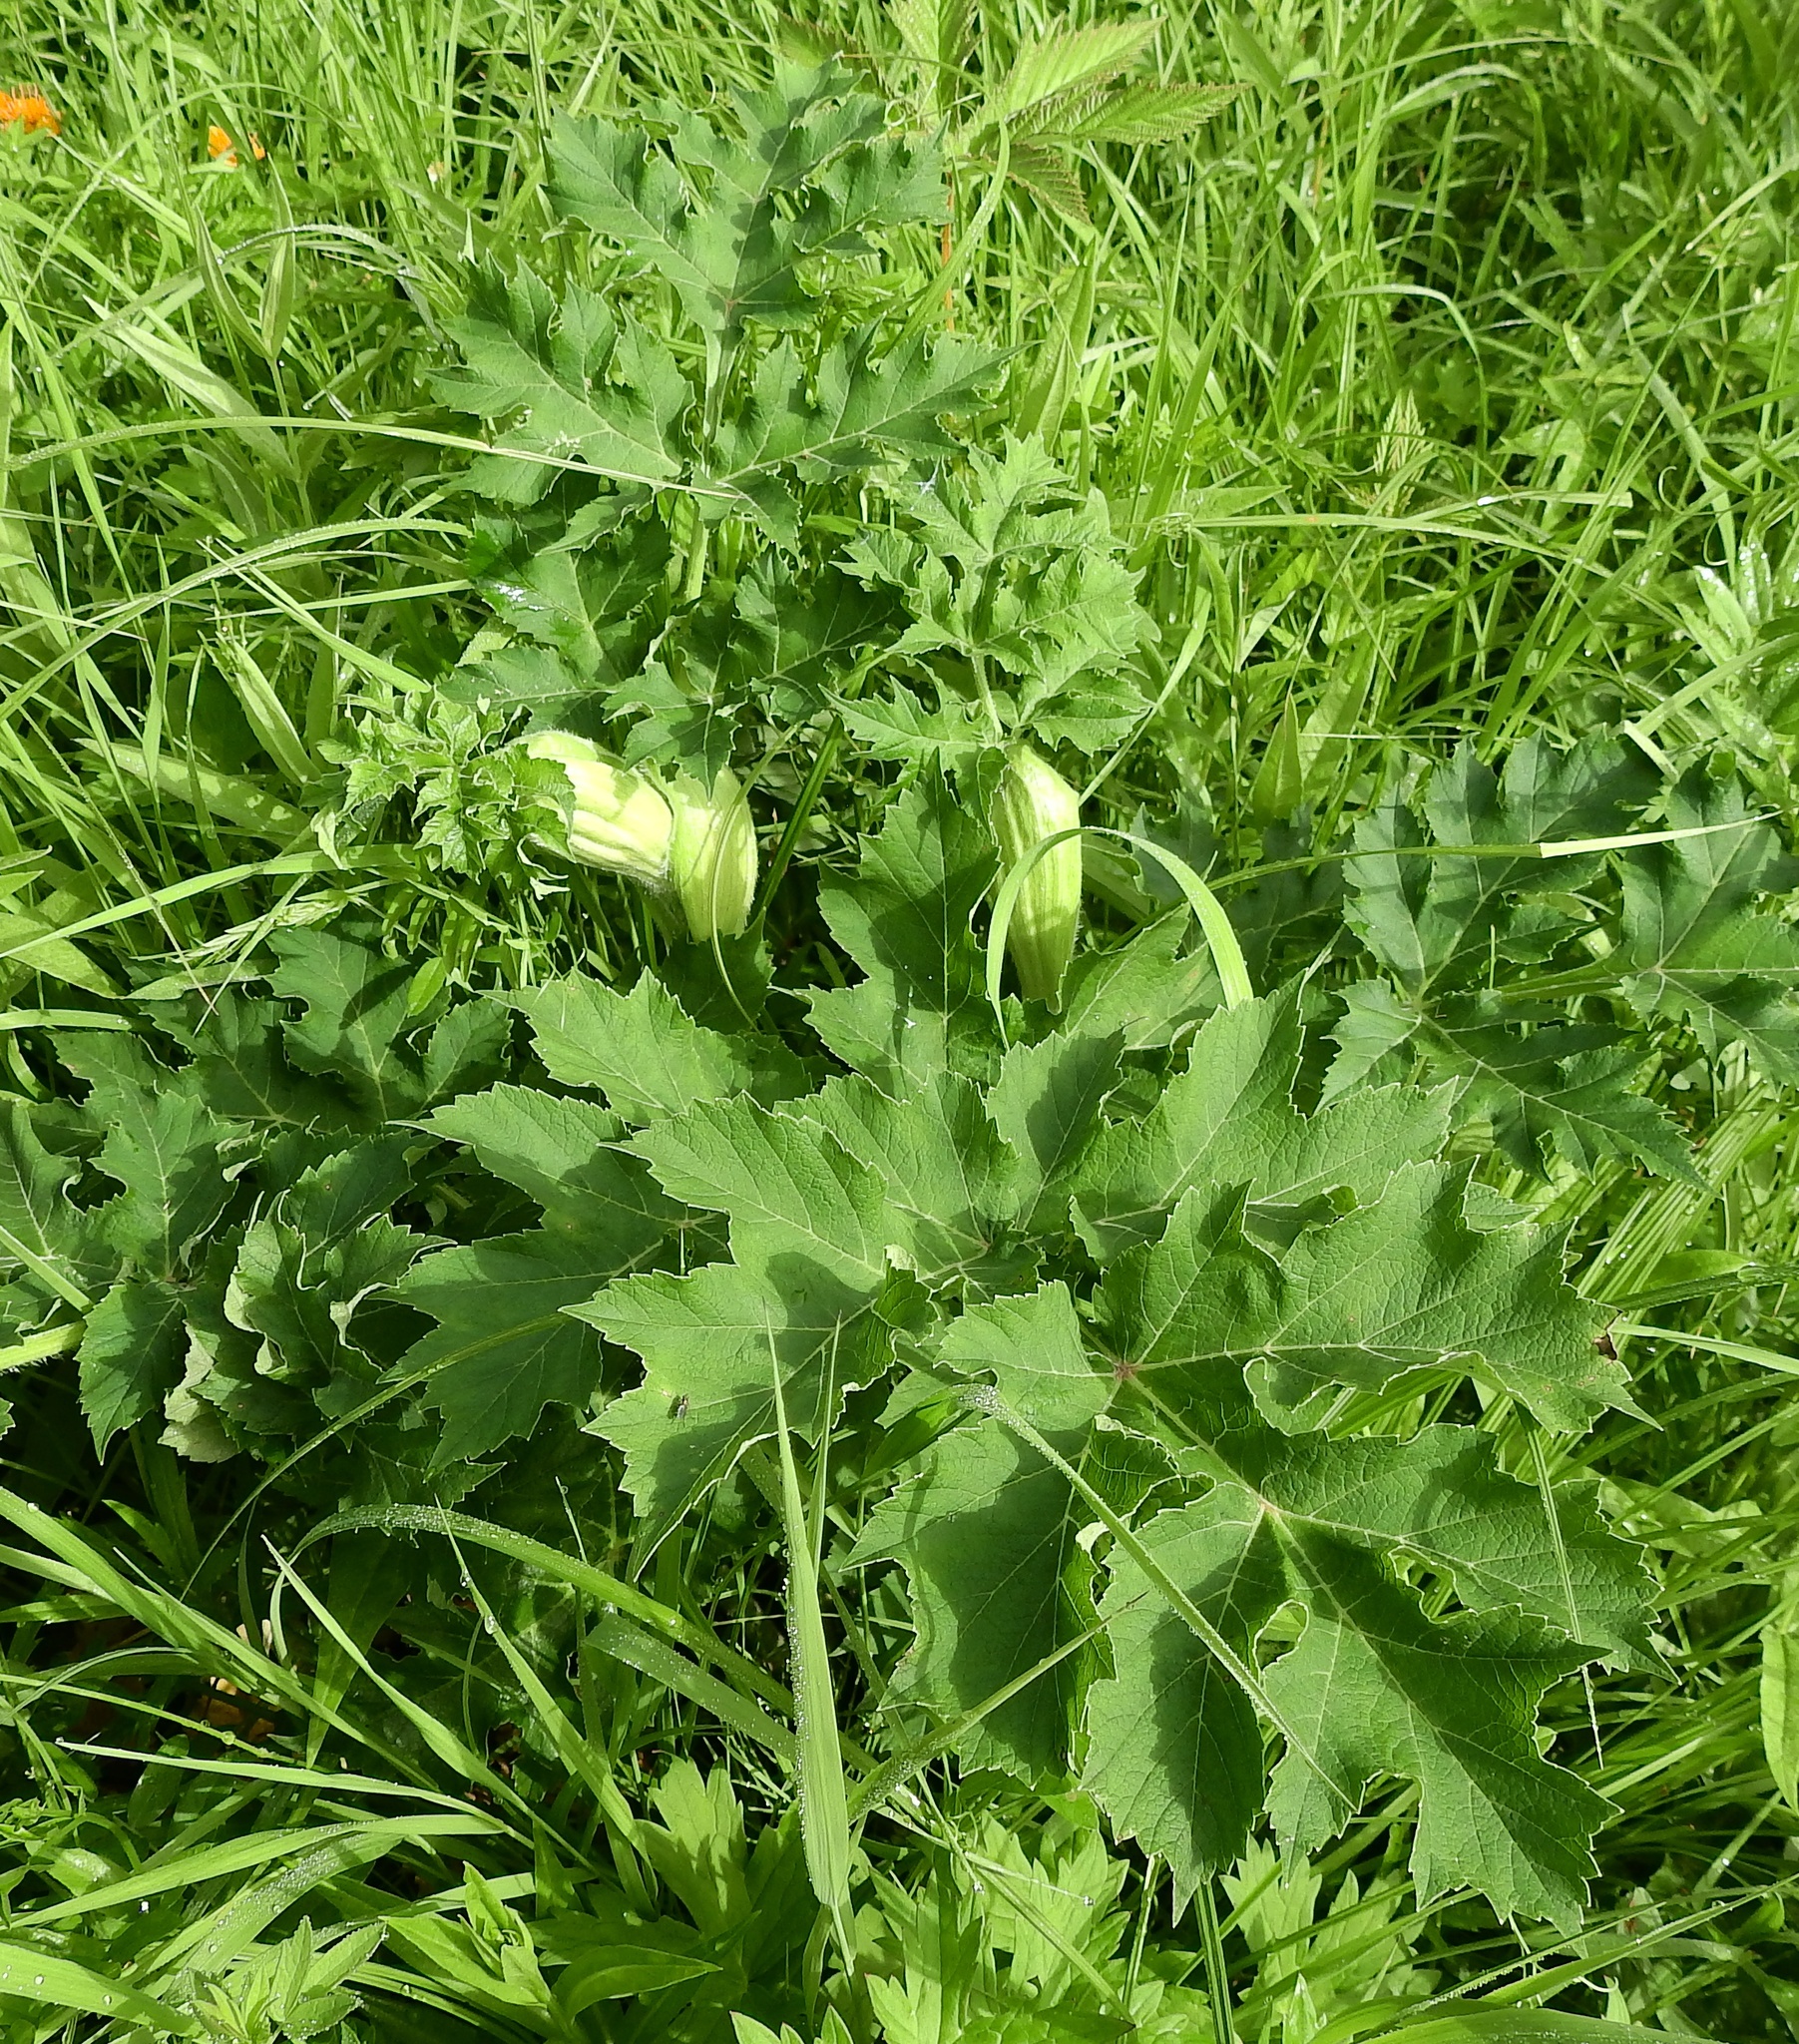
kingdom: Plantae
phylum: Tracheophyta
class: Magnoliopsida
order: Apiales
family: Apiaceae
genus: Heracleum
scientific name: Heracleum dissectum
